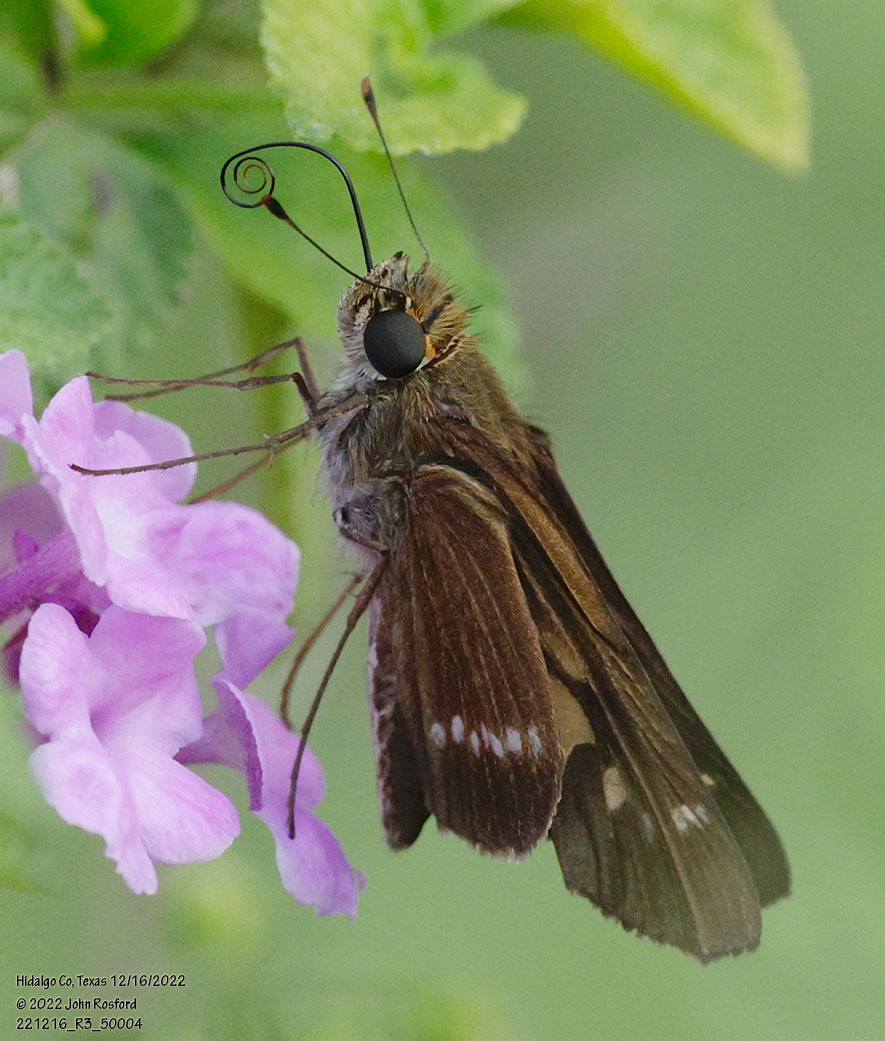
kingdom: Animalia
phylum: Arthropoda
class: Insecta
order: Lepidoptera
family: Hesperiidae
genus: Turesis
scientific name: Turesis lucas
